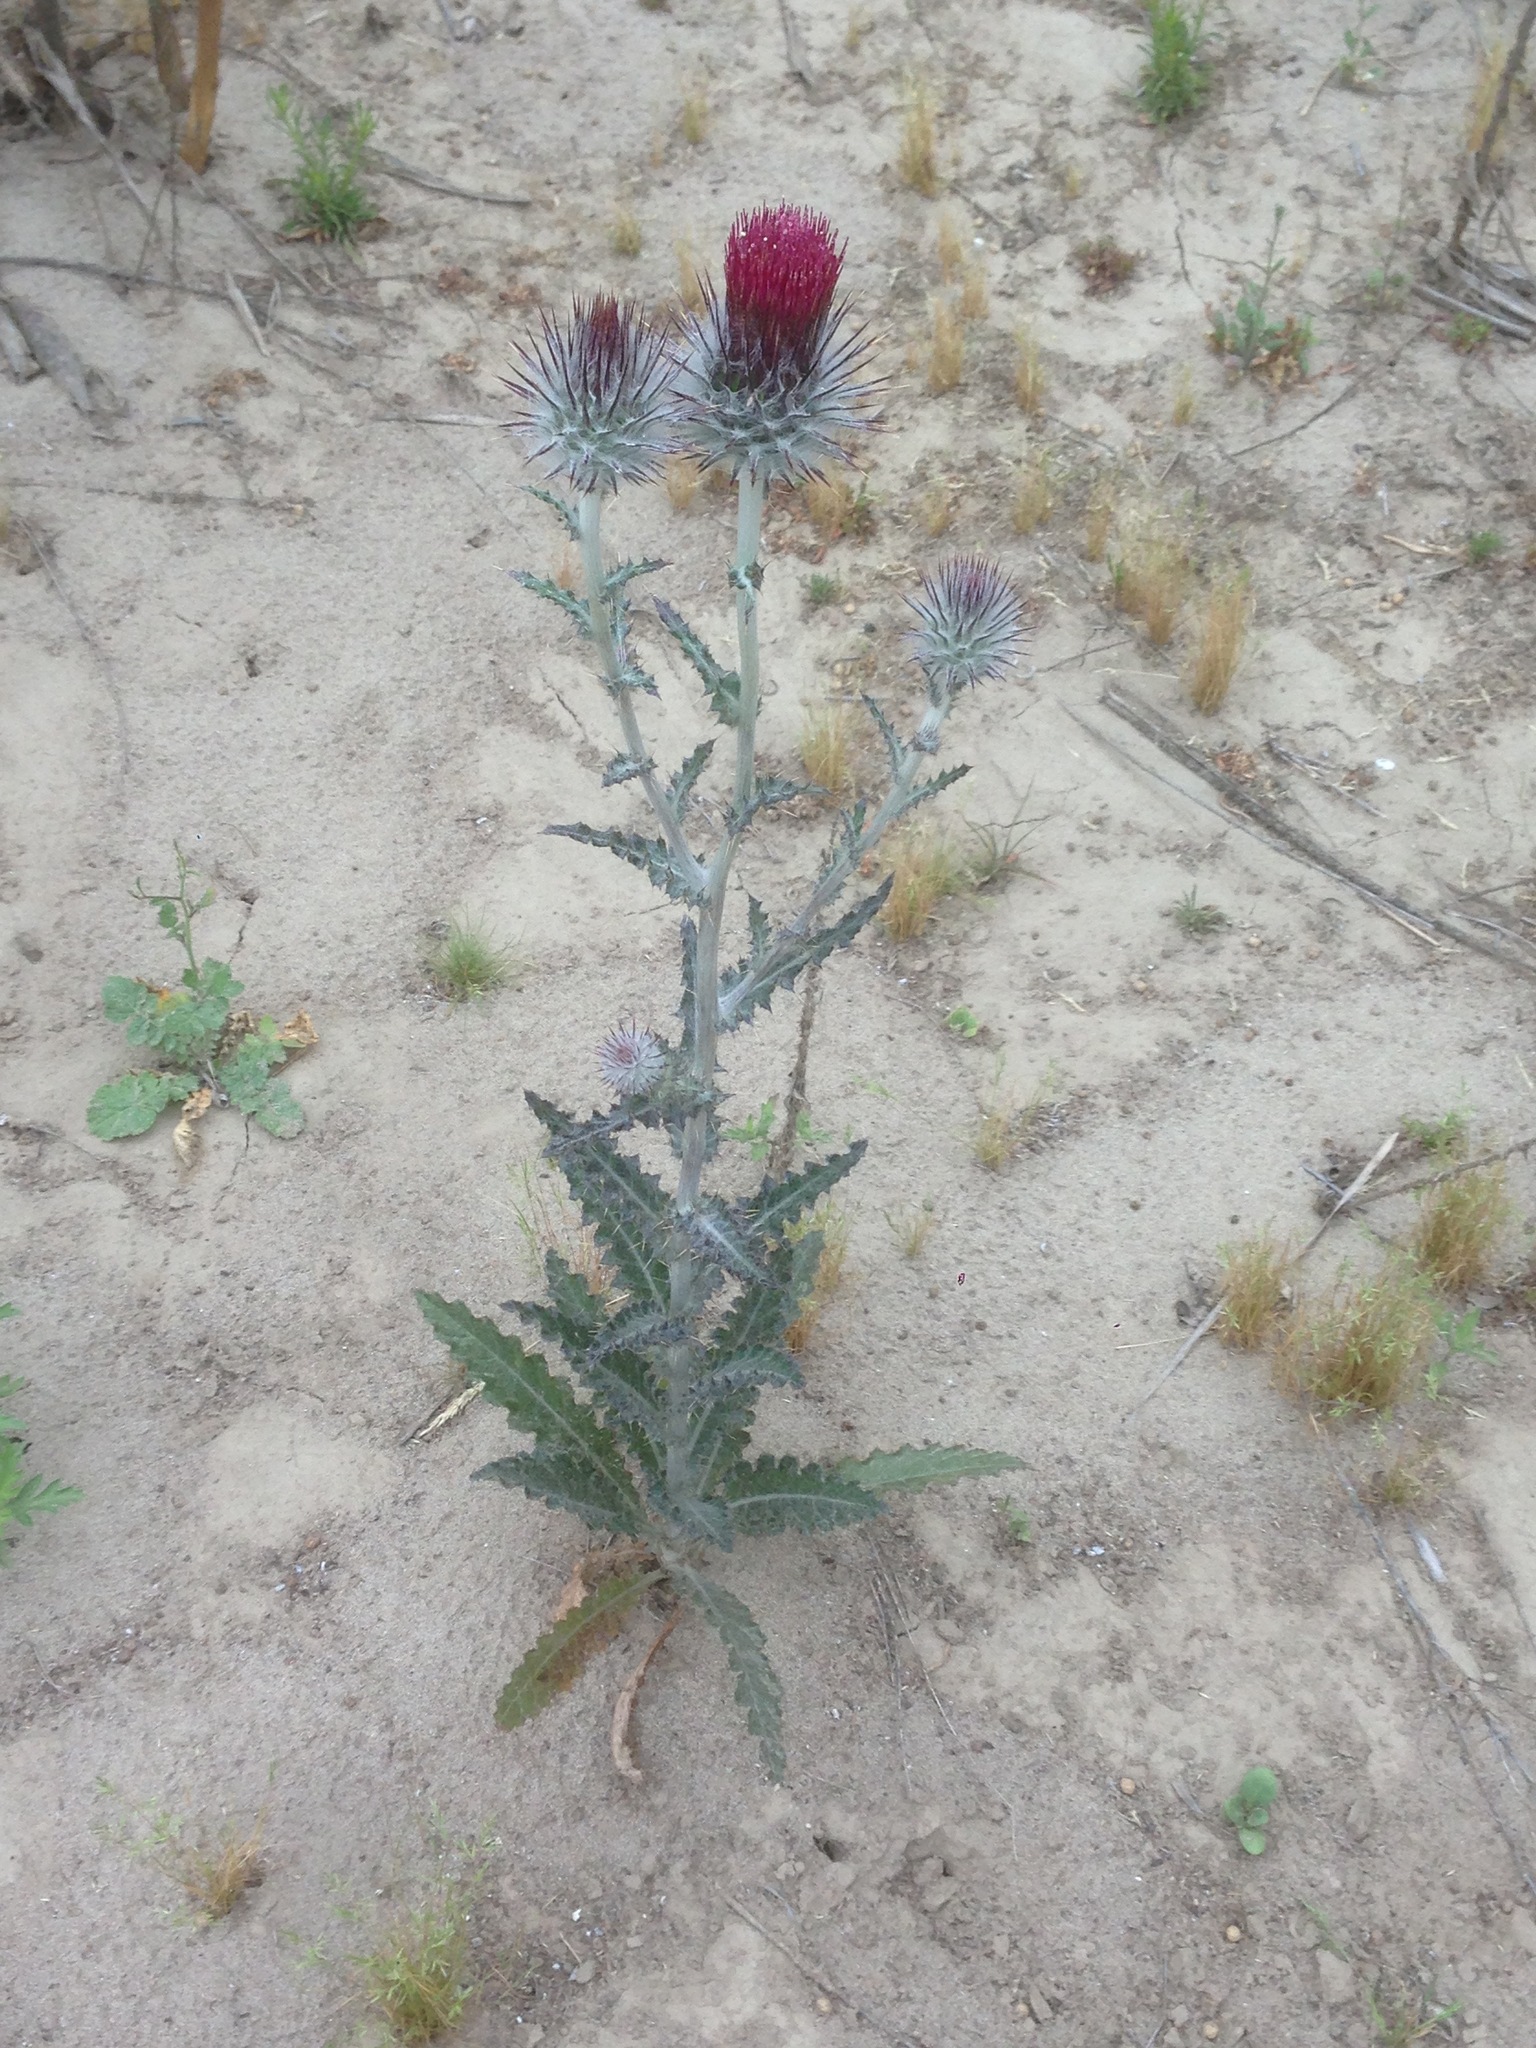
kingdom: Plantae
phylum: Tracheophyta
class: Magnoliopsida
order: Asterales
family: Asteraceae
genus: Cirsium
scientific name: Cirsium occidentale
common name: Western thistle
